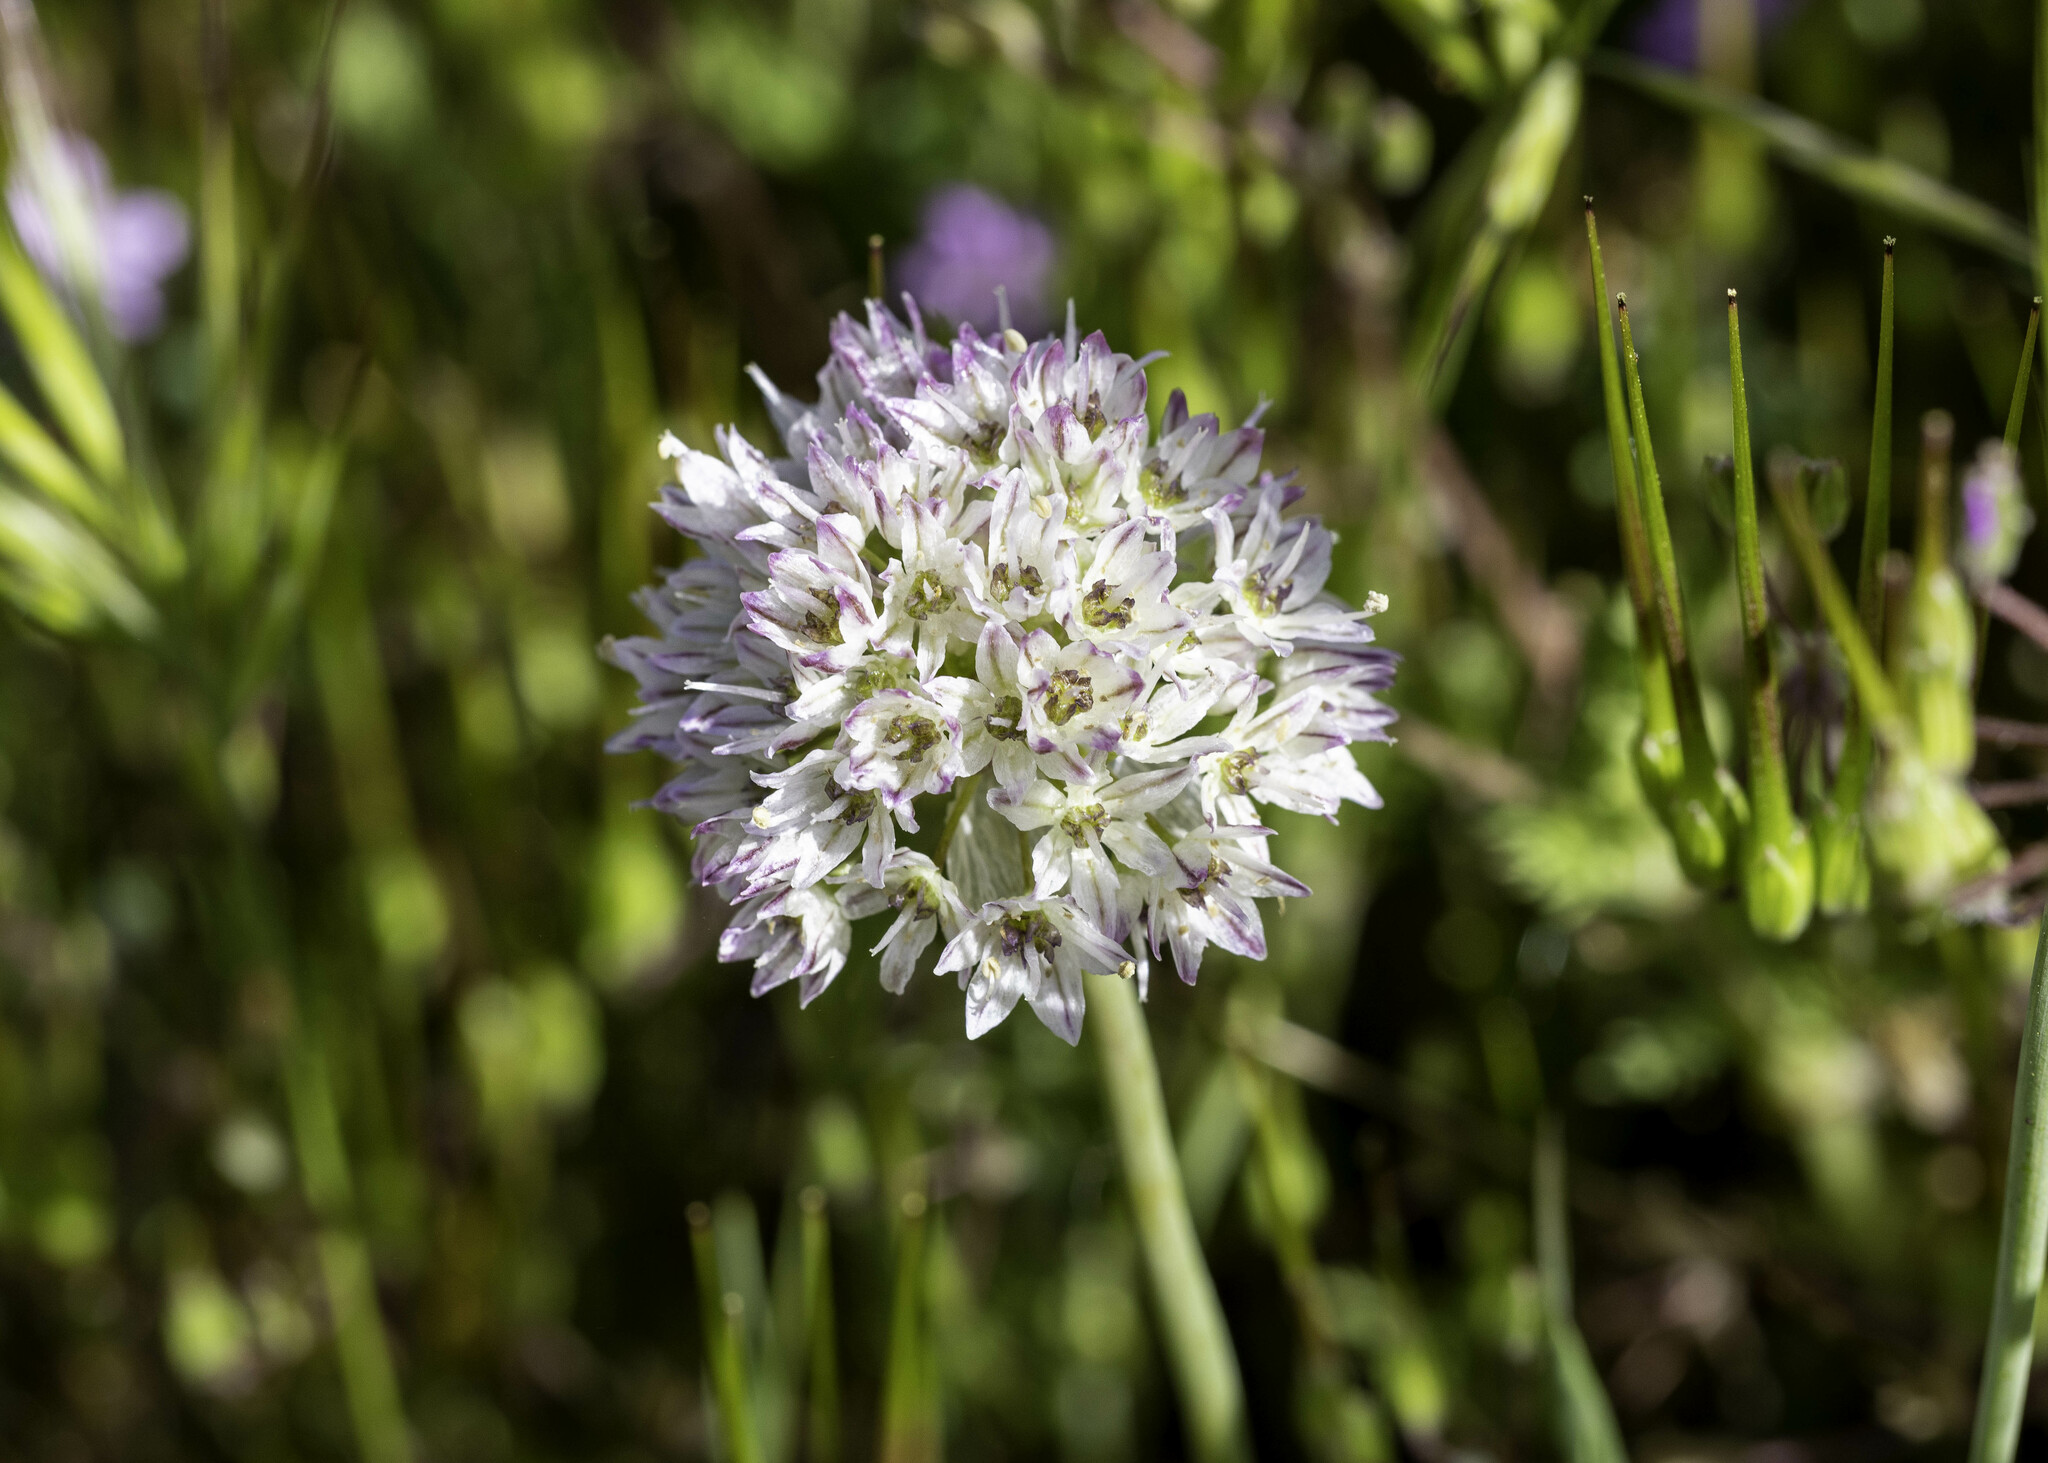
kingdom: Plantae
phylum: Tracheophyta
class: Liliopsida
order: Asparagales
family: Amaryllidaceae
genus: Allium
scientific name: Allium howellii
